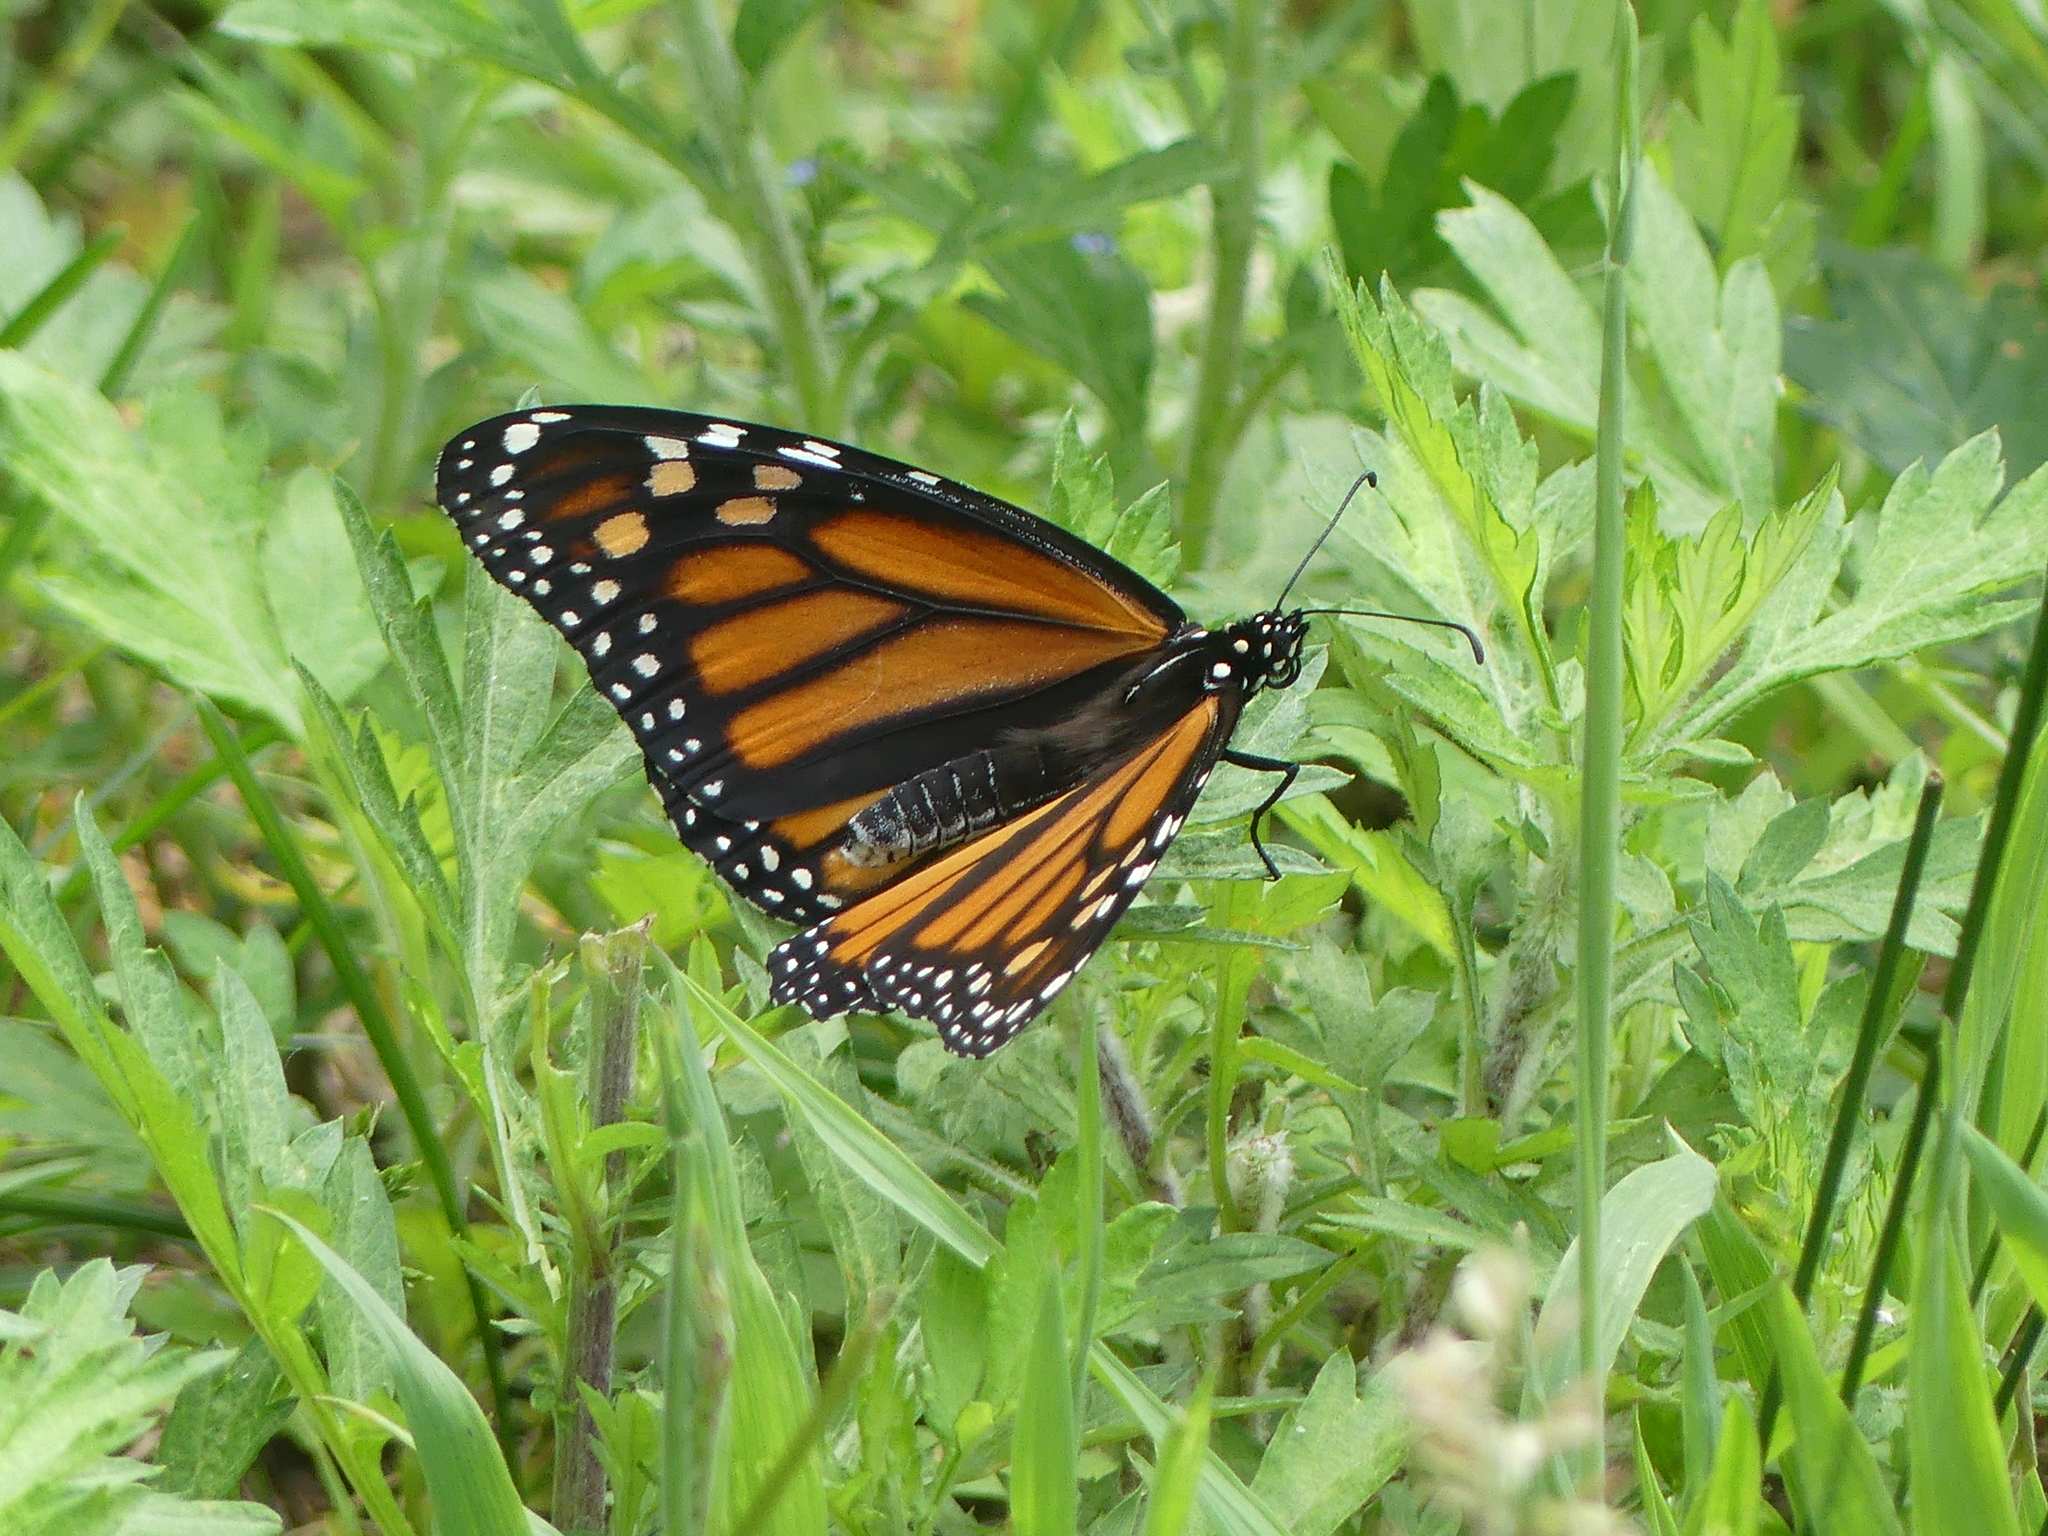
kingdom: Animalia
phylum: Arthropoda
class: Insecta
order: Lepidoptera
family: Nymphalidae
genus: Danaus
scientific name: Danaus plexippus
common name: Monarch
